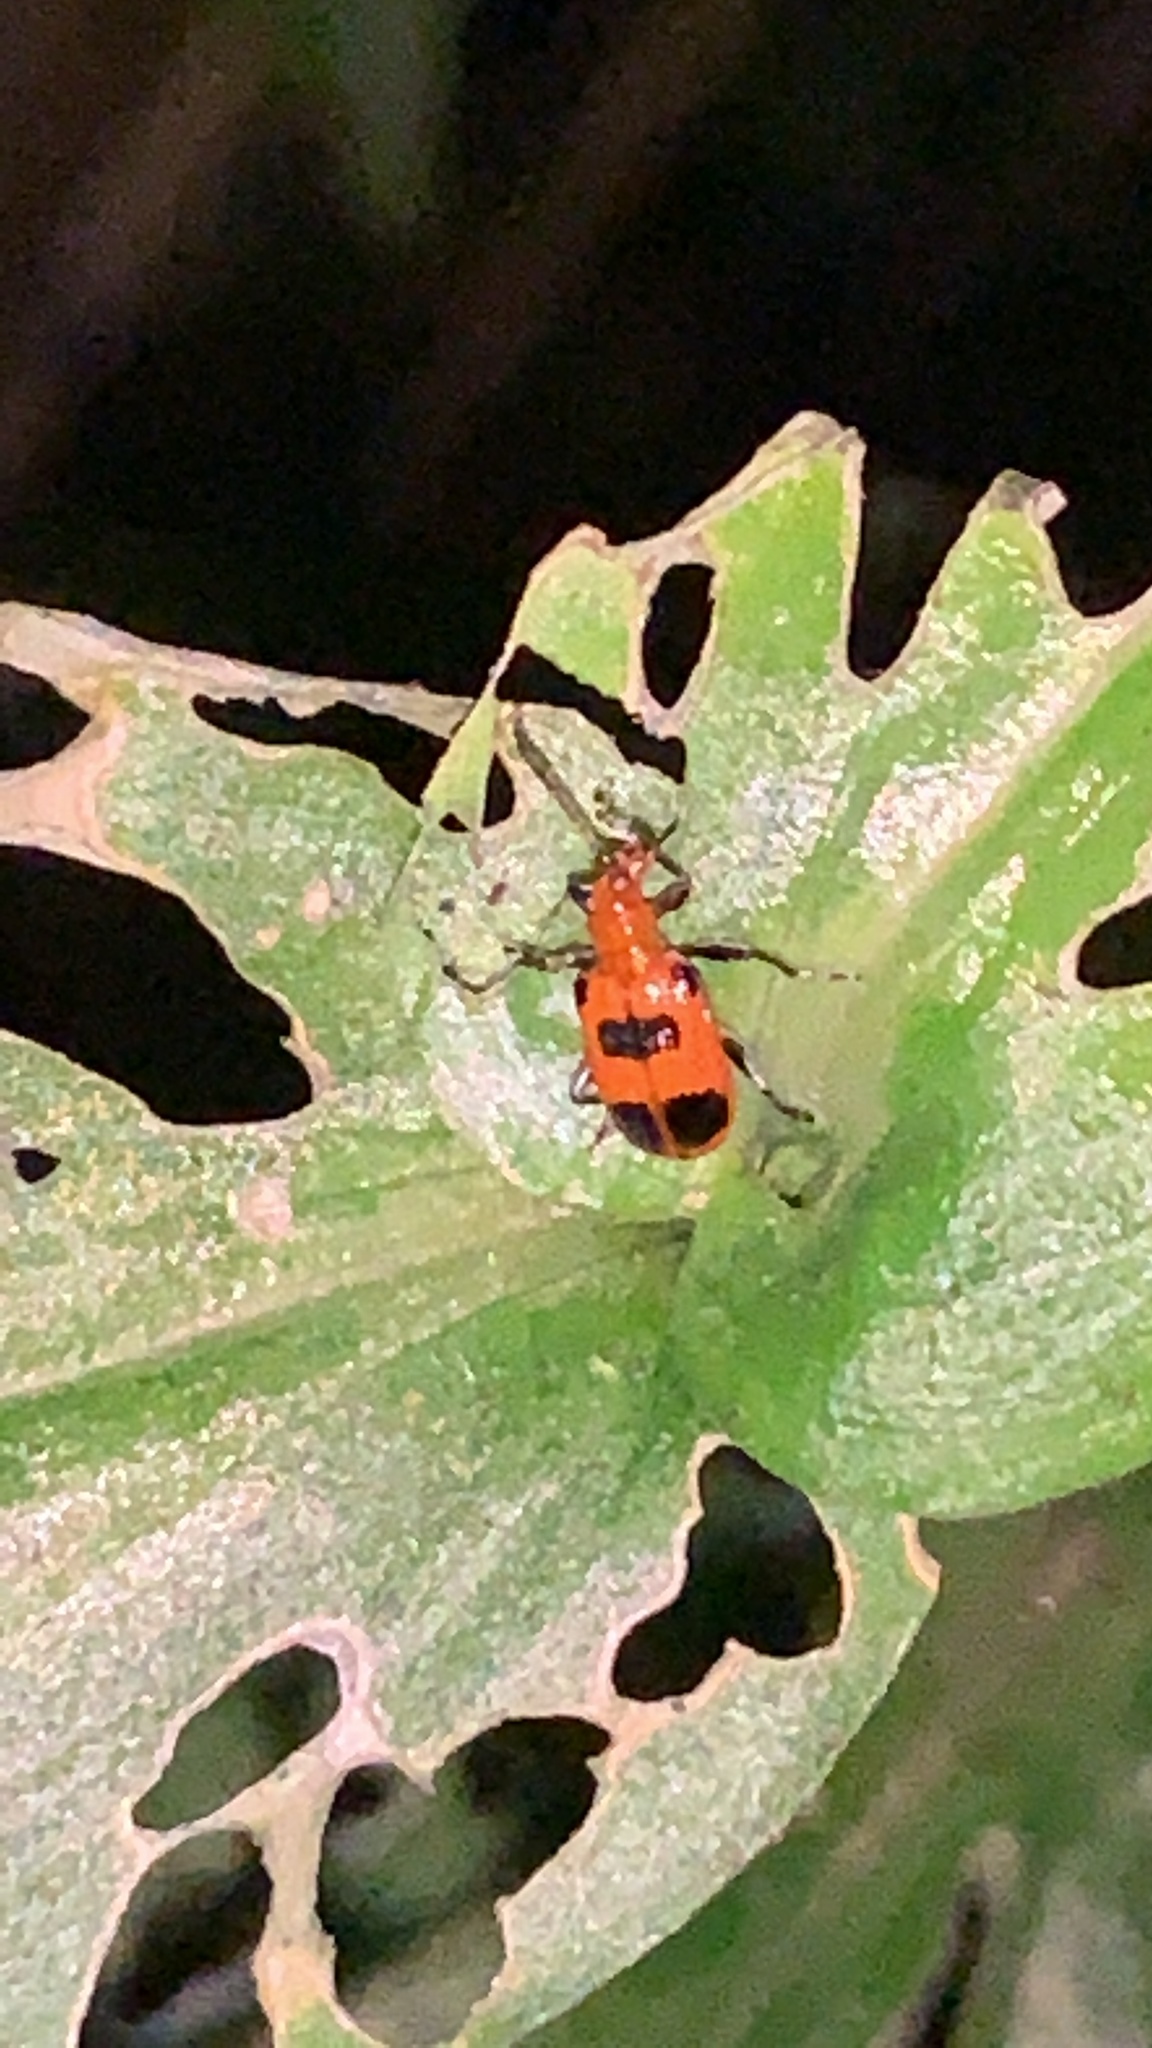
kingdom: Animalia
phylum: Arthropoda
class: Insecta
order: Coleoptera
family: Chrysomelidae
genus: Neolema
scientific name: Neolema sexpunctata
